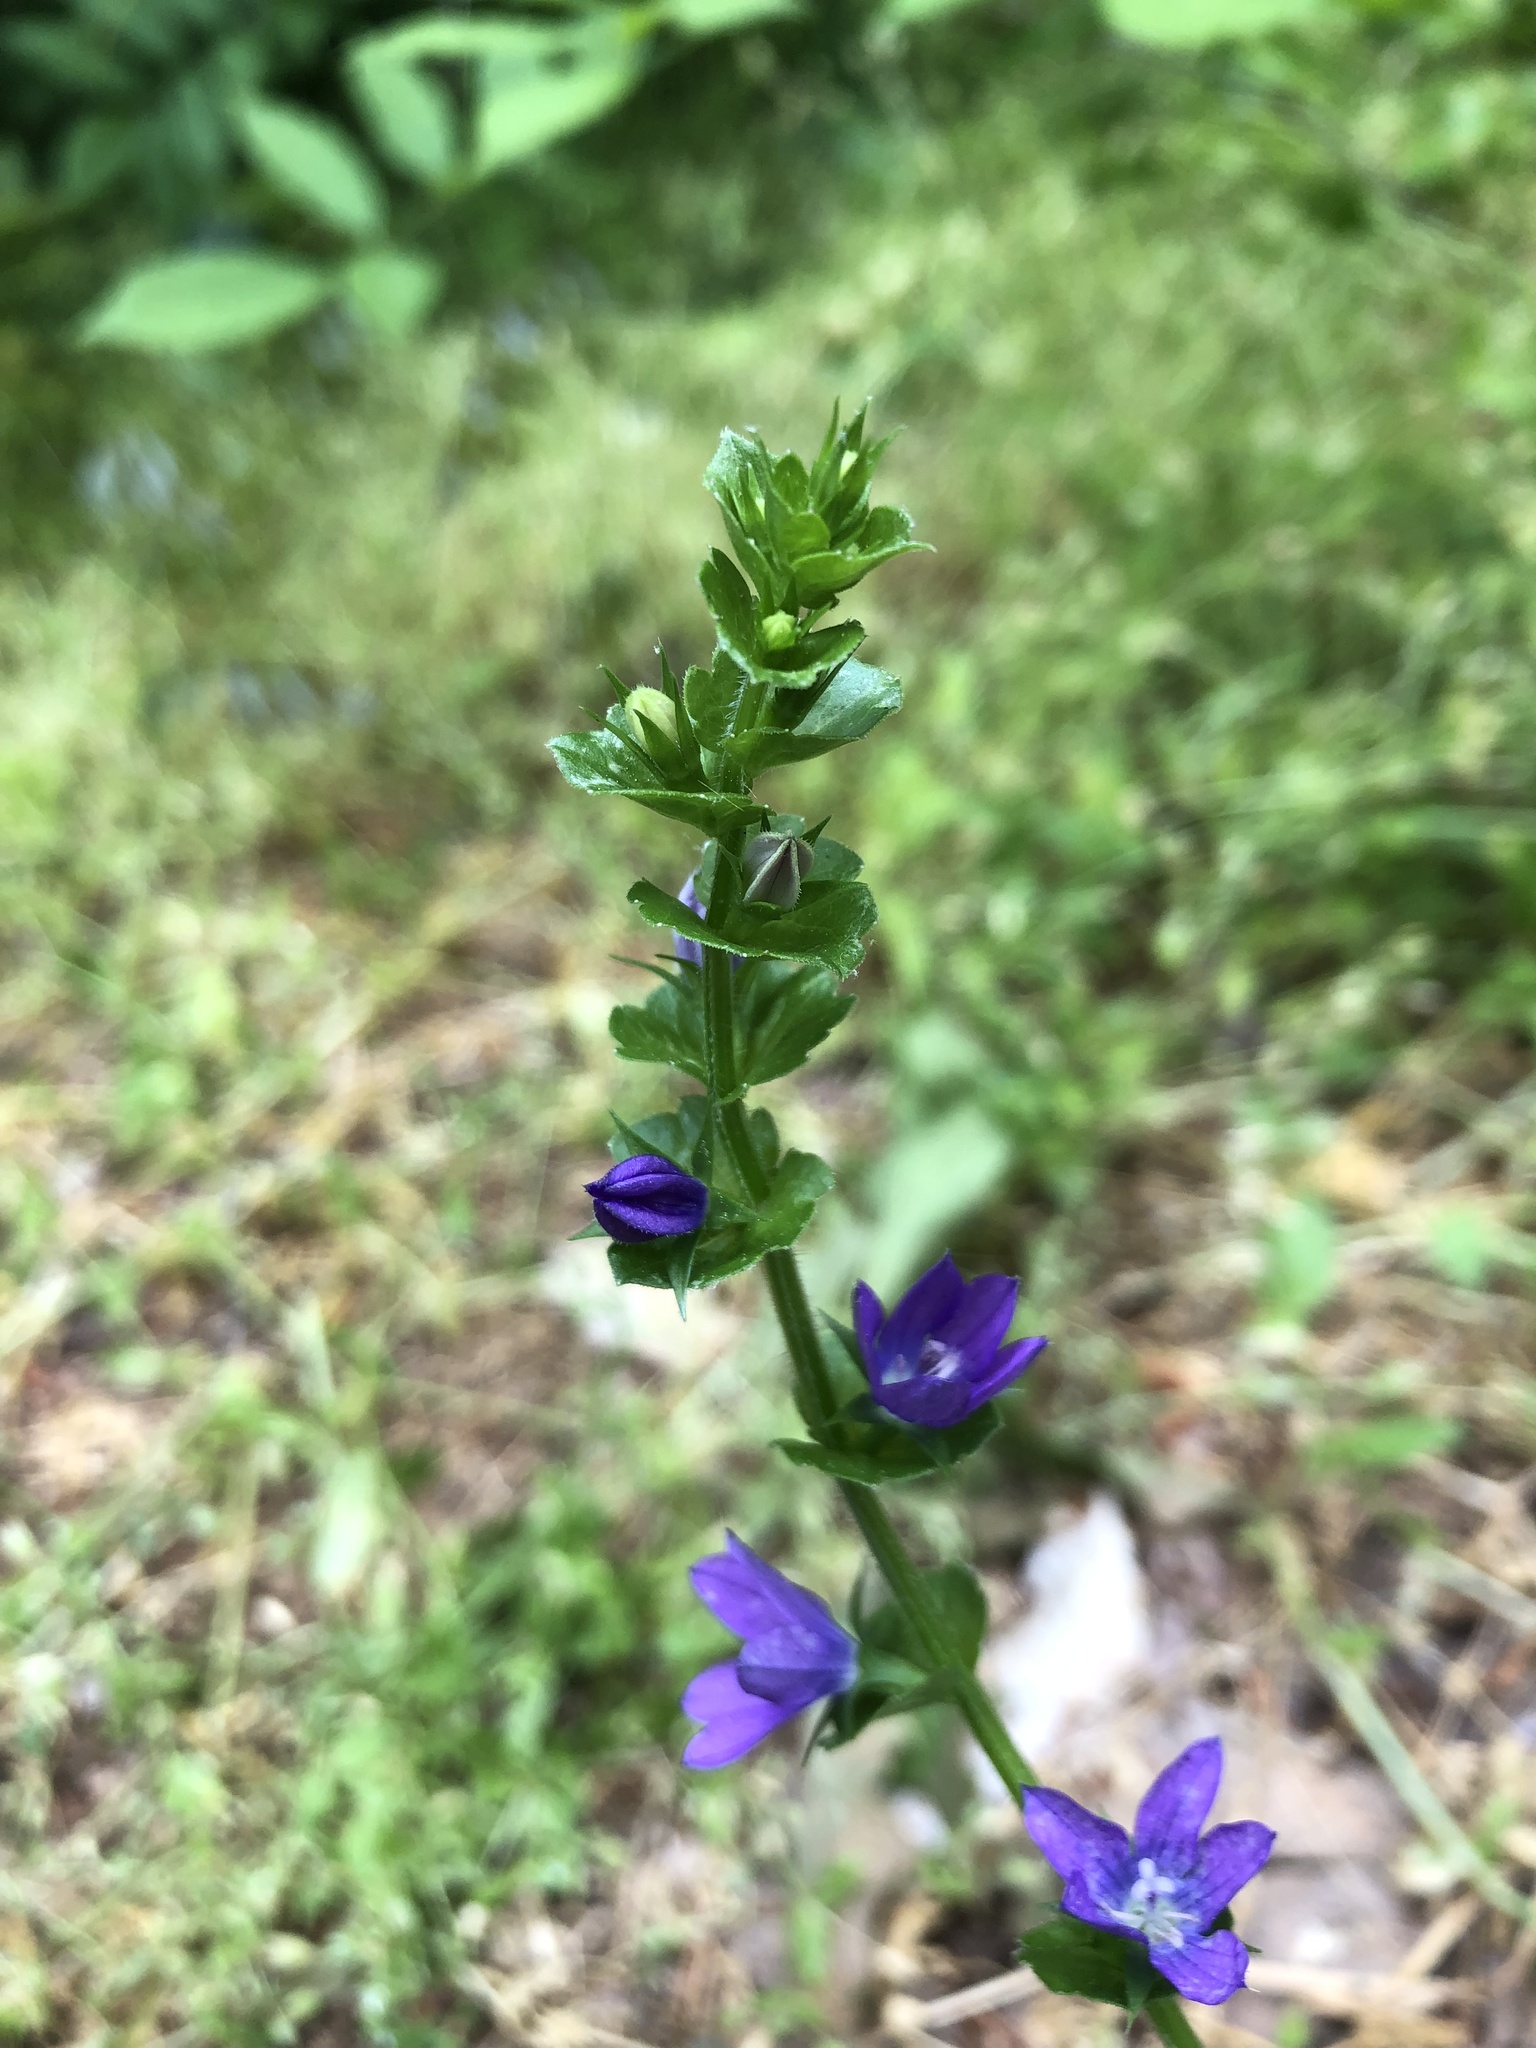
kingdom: Plantae
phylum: Tracheophyta
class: Magnoliopsida
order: Asterales
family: Campanulaceae
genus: Triodanis
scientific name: Triodanis perfoliata
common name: Clasping venus' looking-glass
